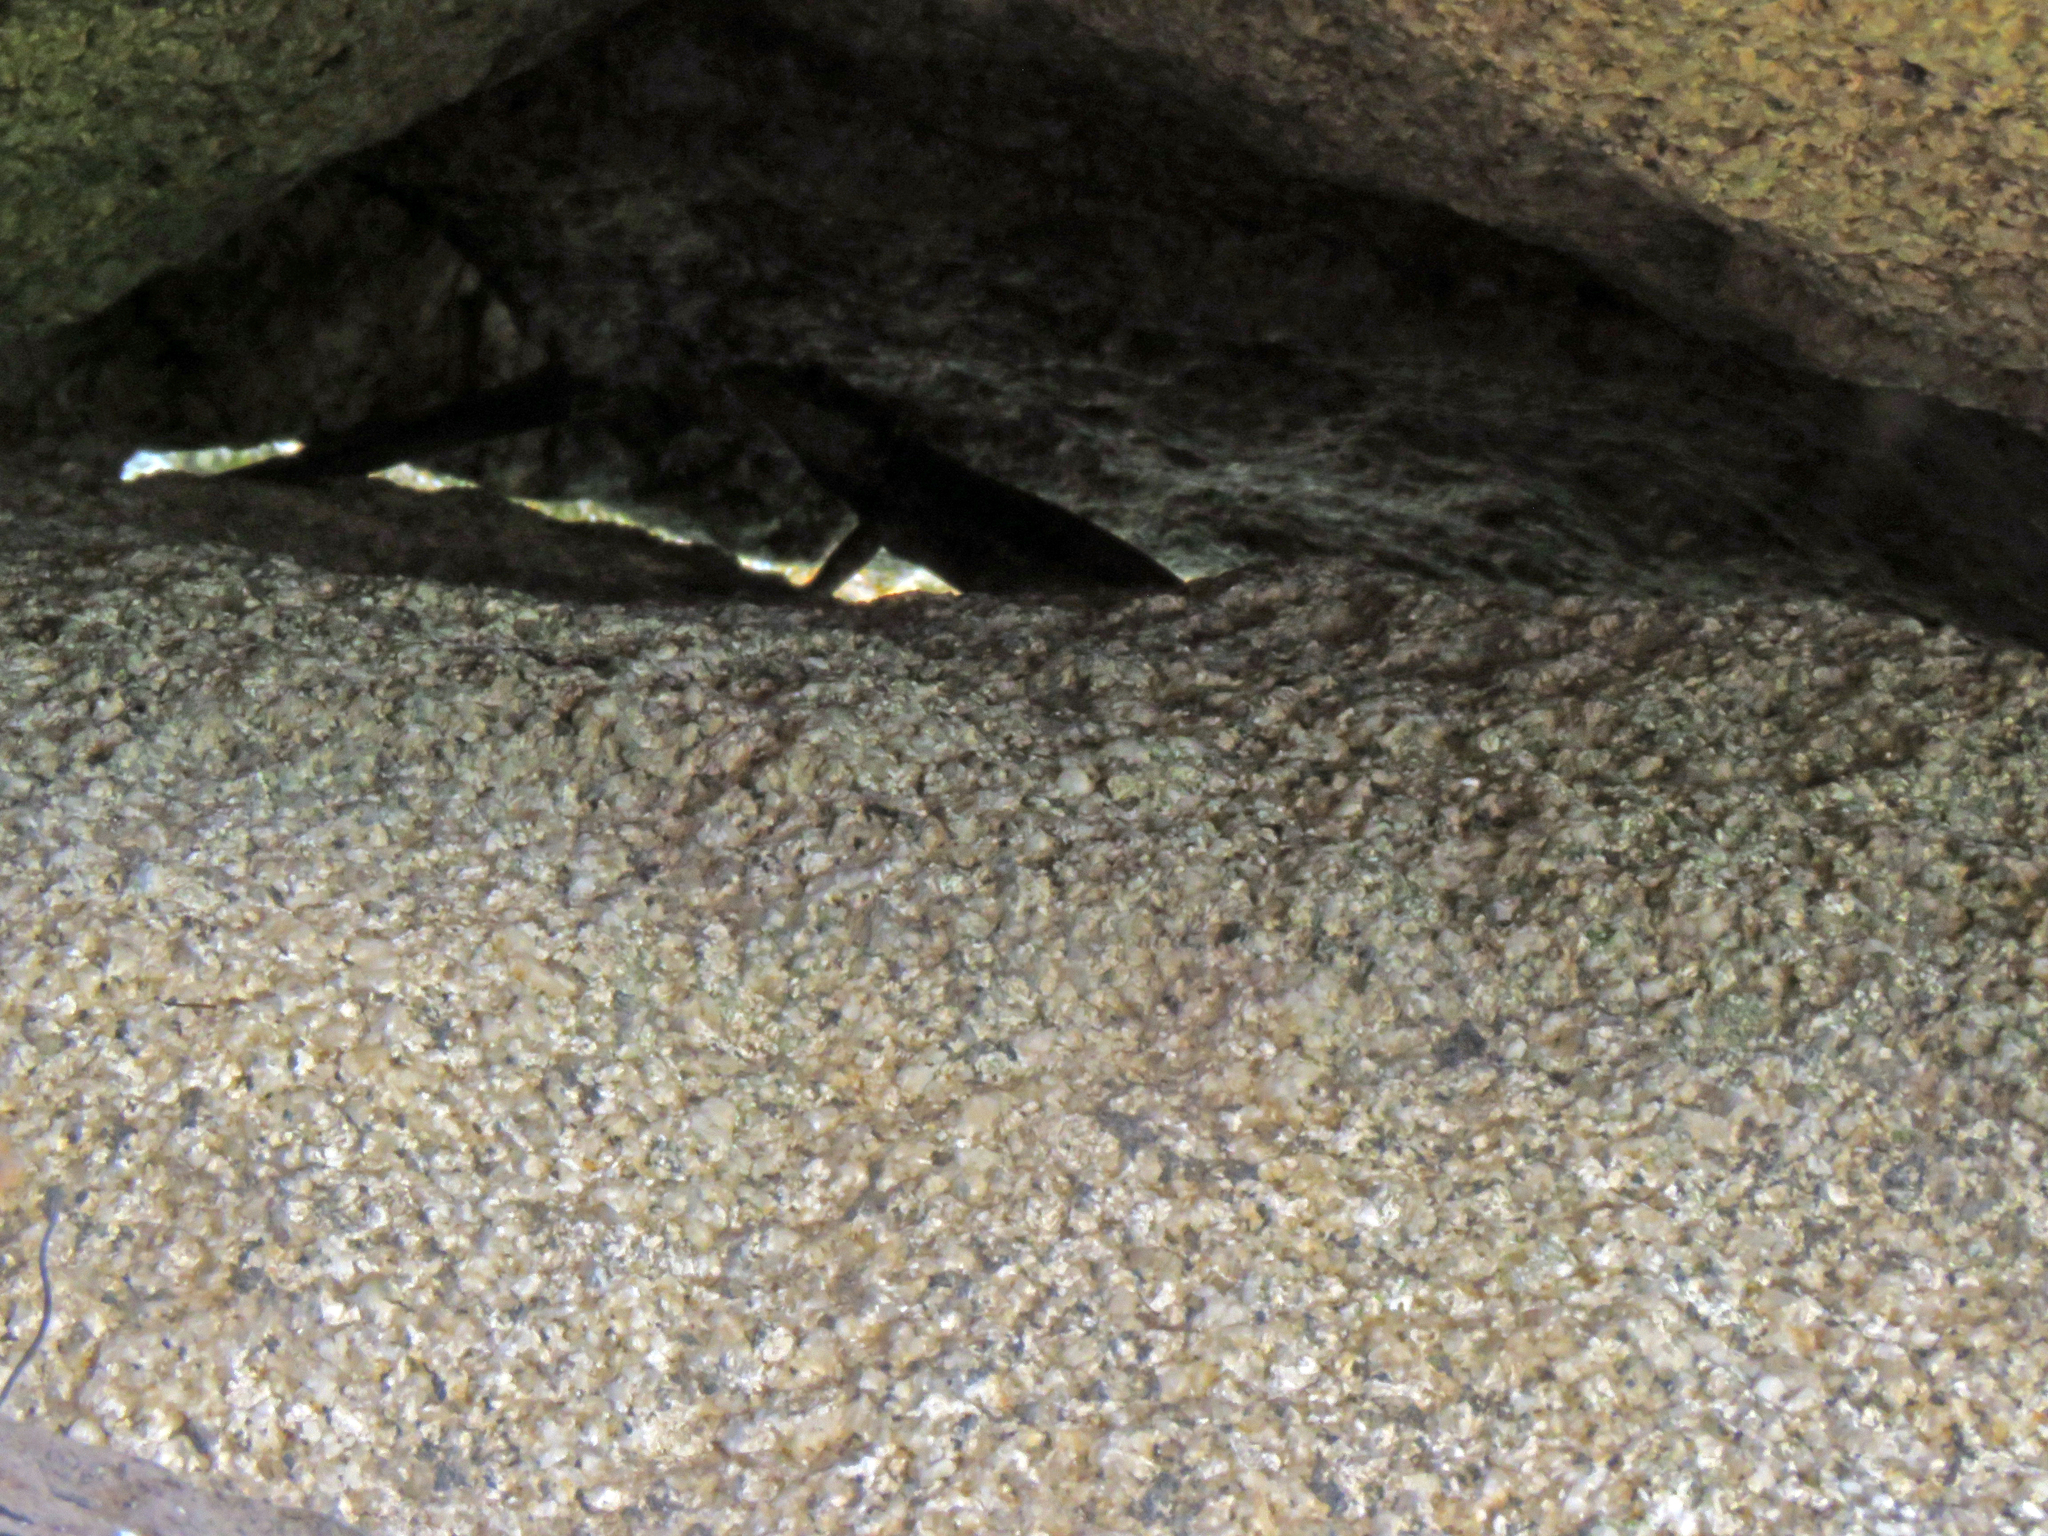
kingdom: Animalia
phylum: Chordata
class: Squamata
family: Tropiduridae
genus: Tropidurus
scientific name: Tropidurus imbituba
